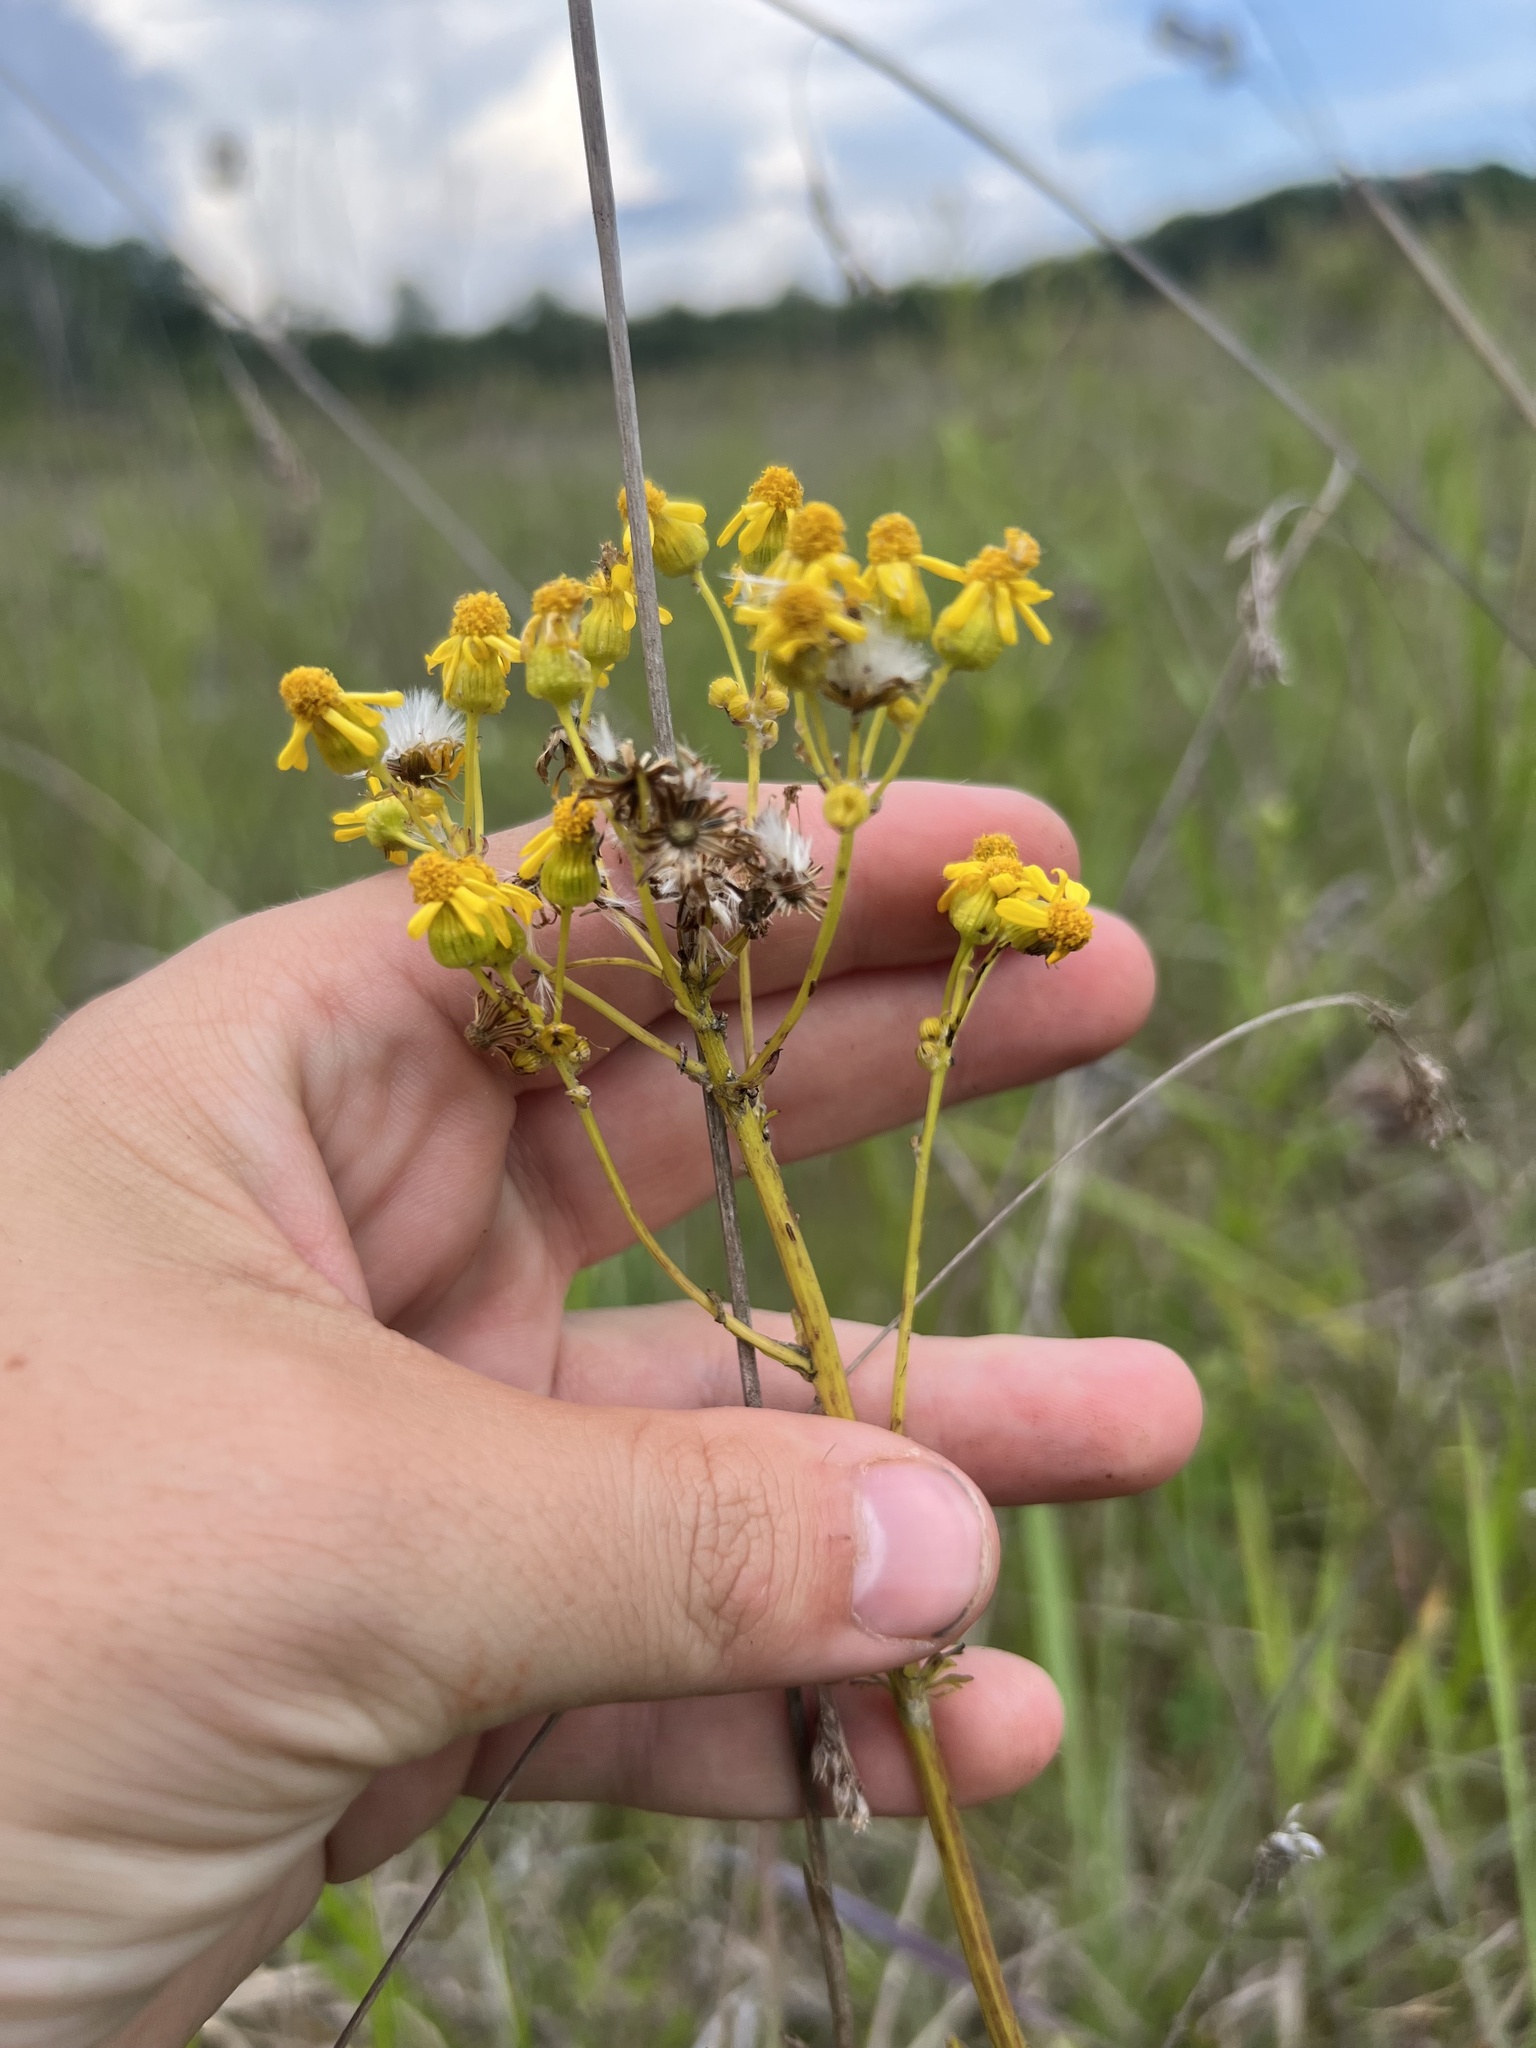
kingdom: Plantae
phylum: Tracheophyta
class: Magnoliopsida
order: Asterales
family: Asteraceae
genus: Packera
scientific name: Packera crawfordii
